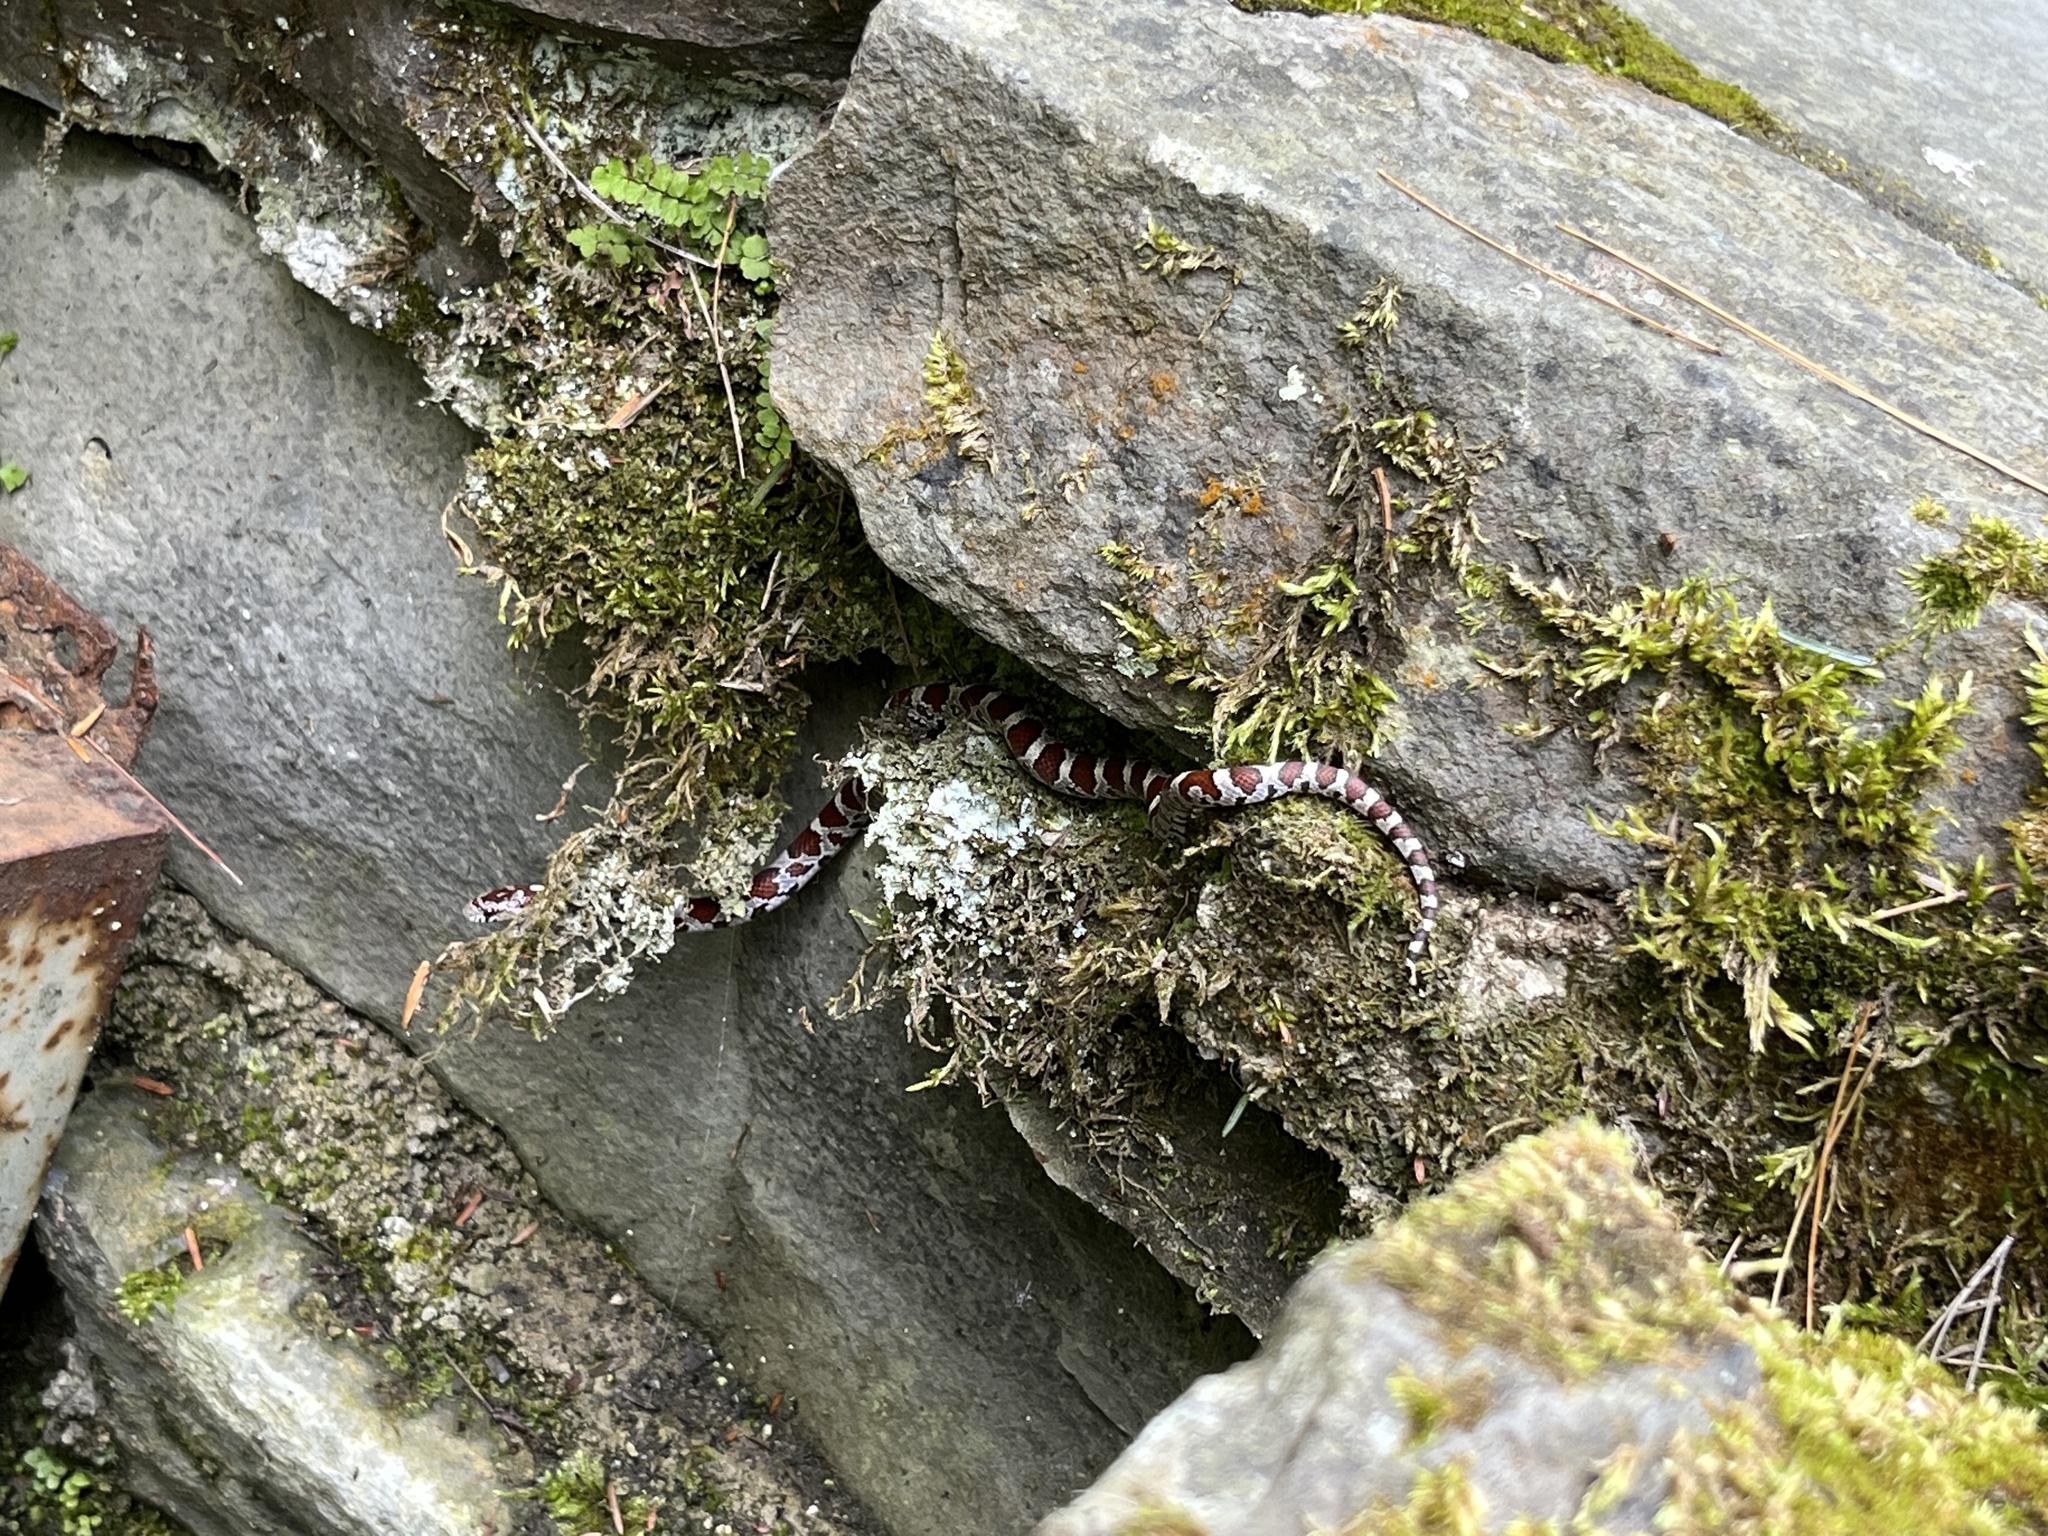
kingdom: Animalia
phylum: Chordata
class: Squamata
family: Colubridae
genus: Lampropeltis
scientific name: Lampropeltis triangulum
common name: Eastern milksnake
